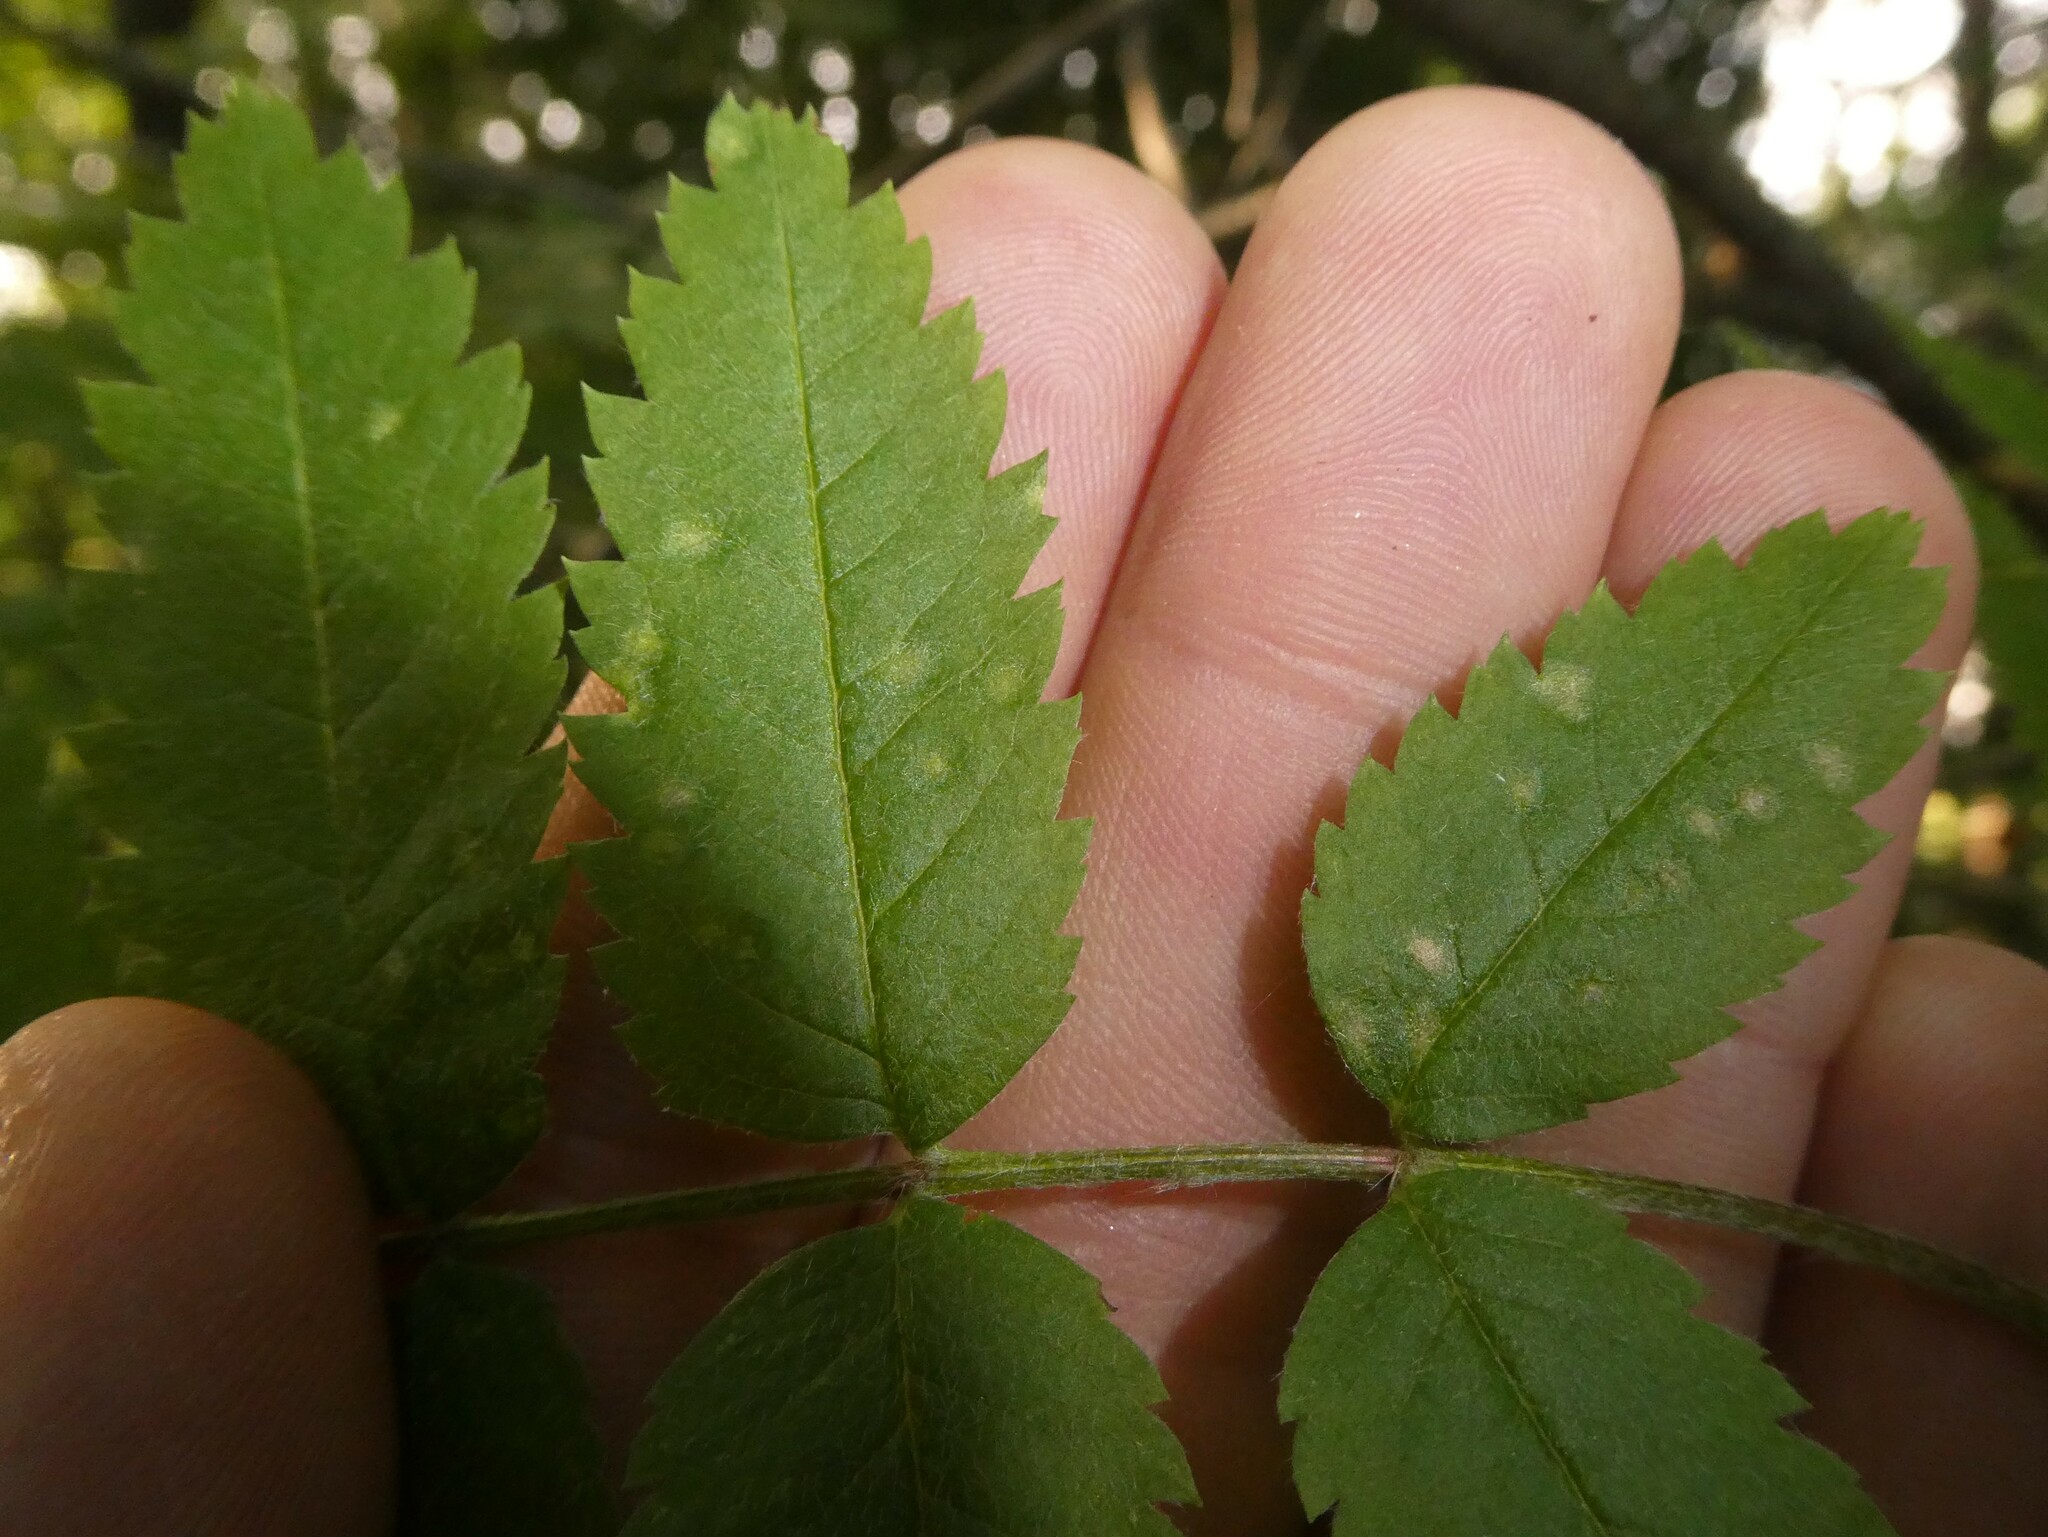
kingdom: Animalia
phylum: Arthropoda
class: Arachnida
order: Trombidiformes
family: Eriophyidae
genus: Eriophyes
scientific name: Eriophyes sorbi
